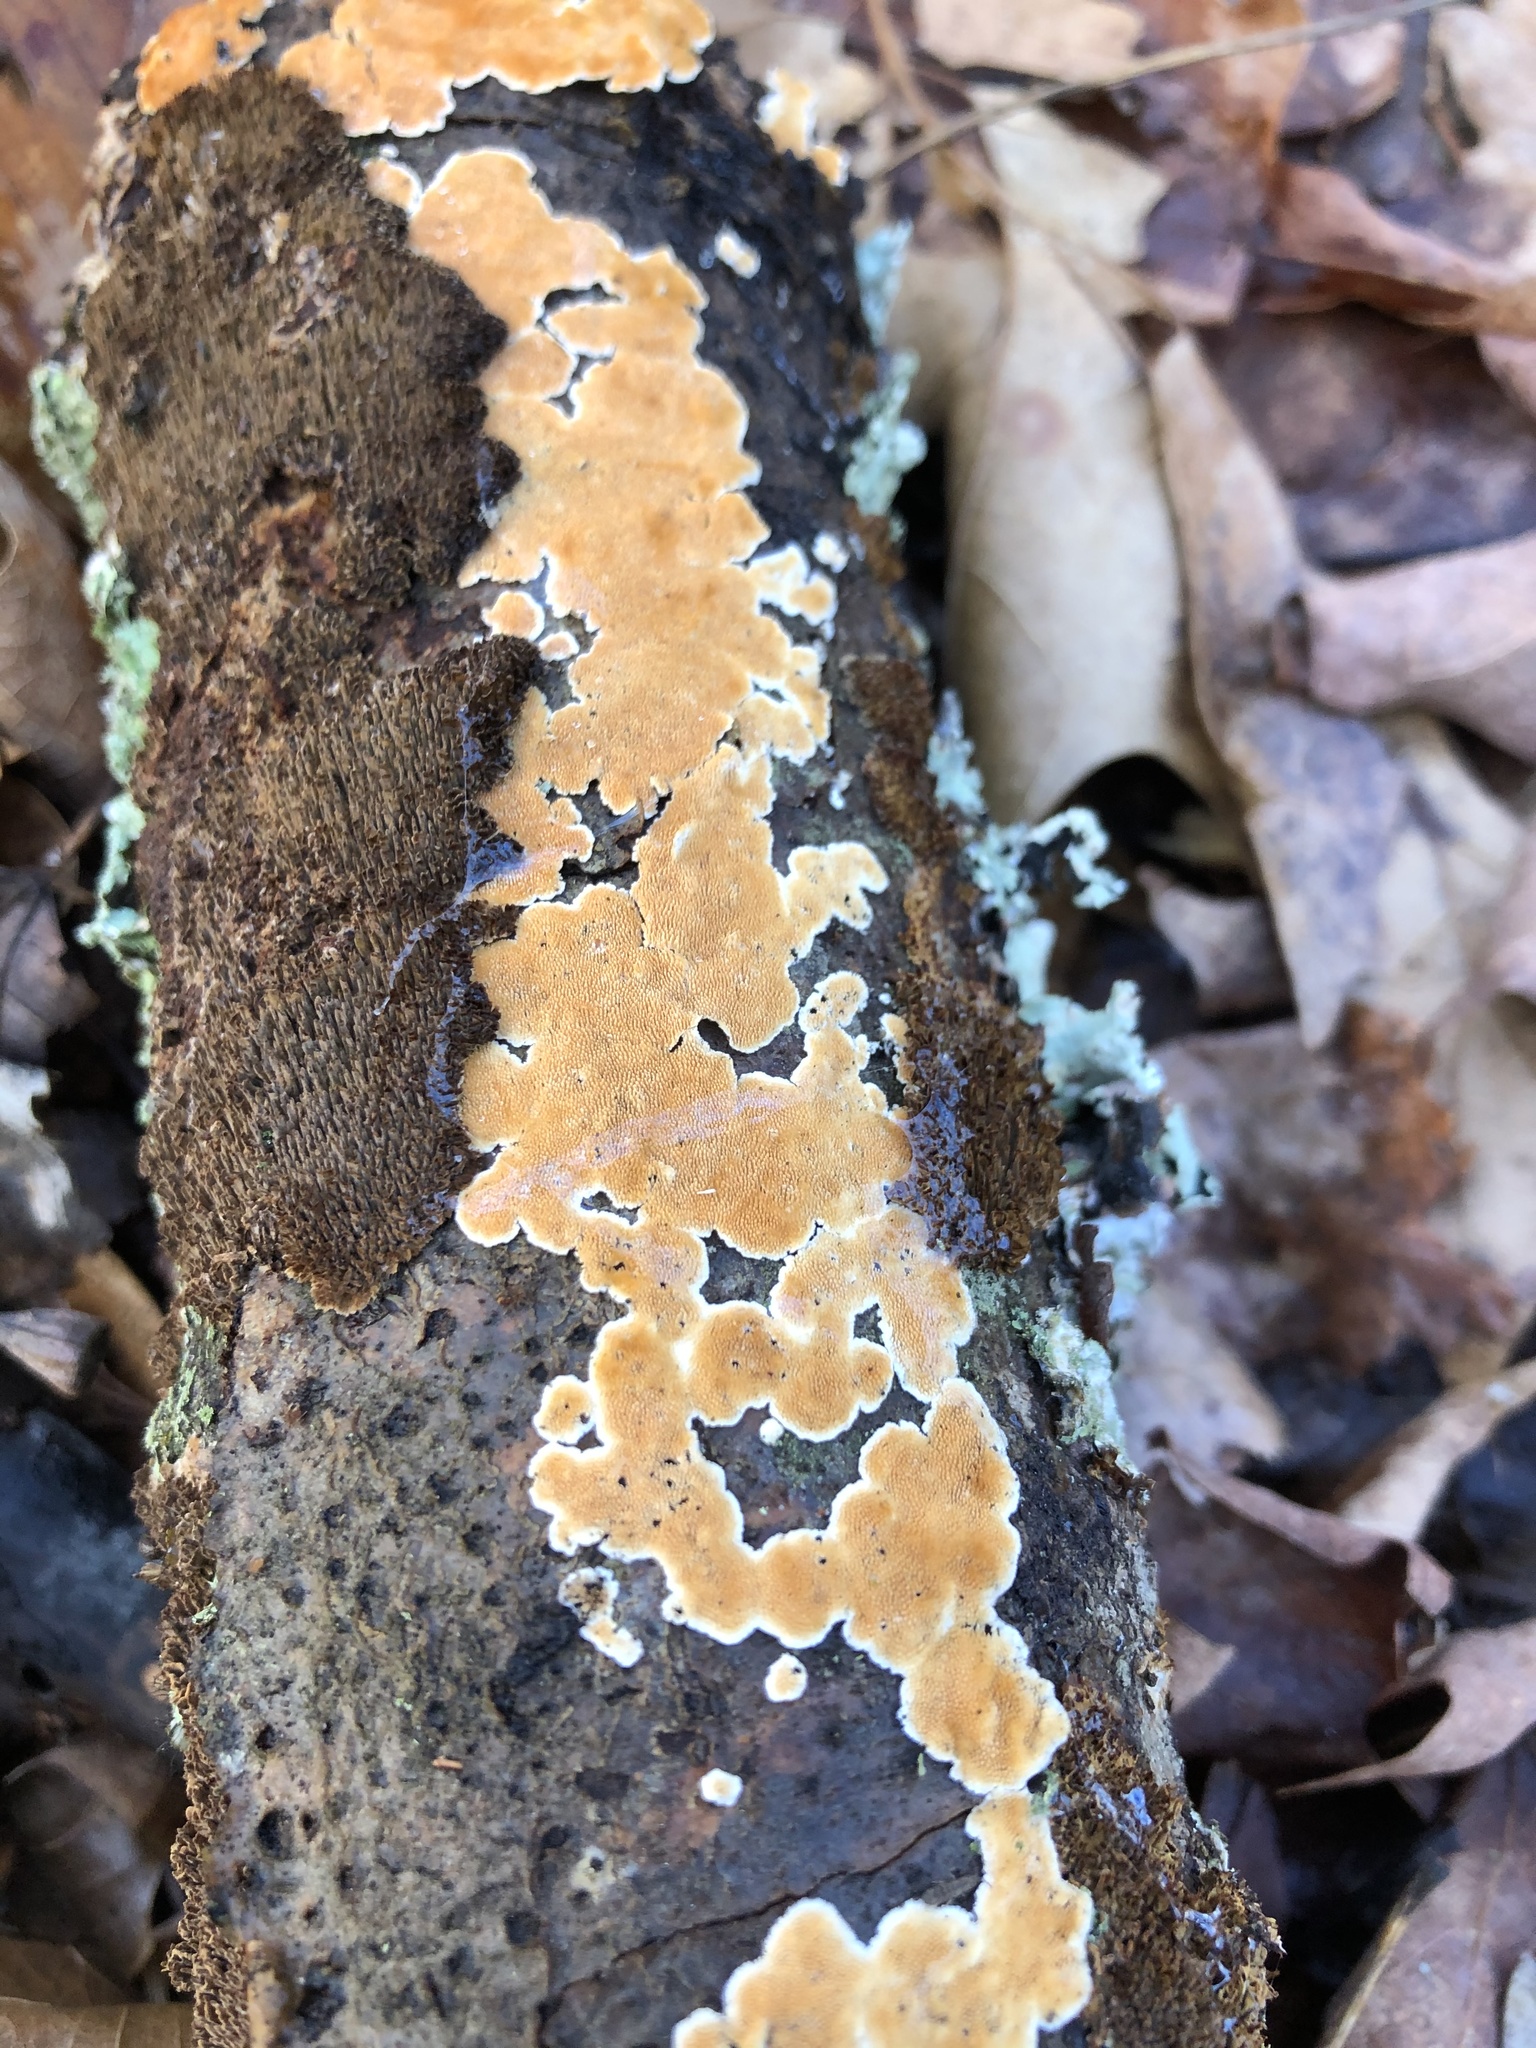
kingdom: Fungi
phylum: Basidiomycota
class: Agaricomycetes
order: Polyporales
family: Steccherinaceae
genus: Steccherinum
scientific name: Steccherinum ochraceum
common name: Ochre spreading tooth
